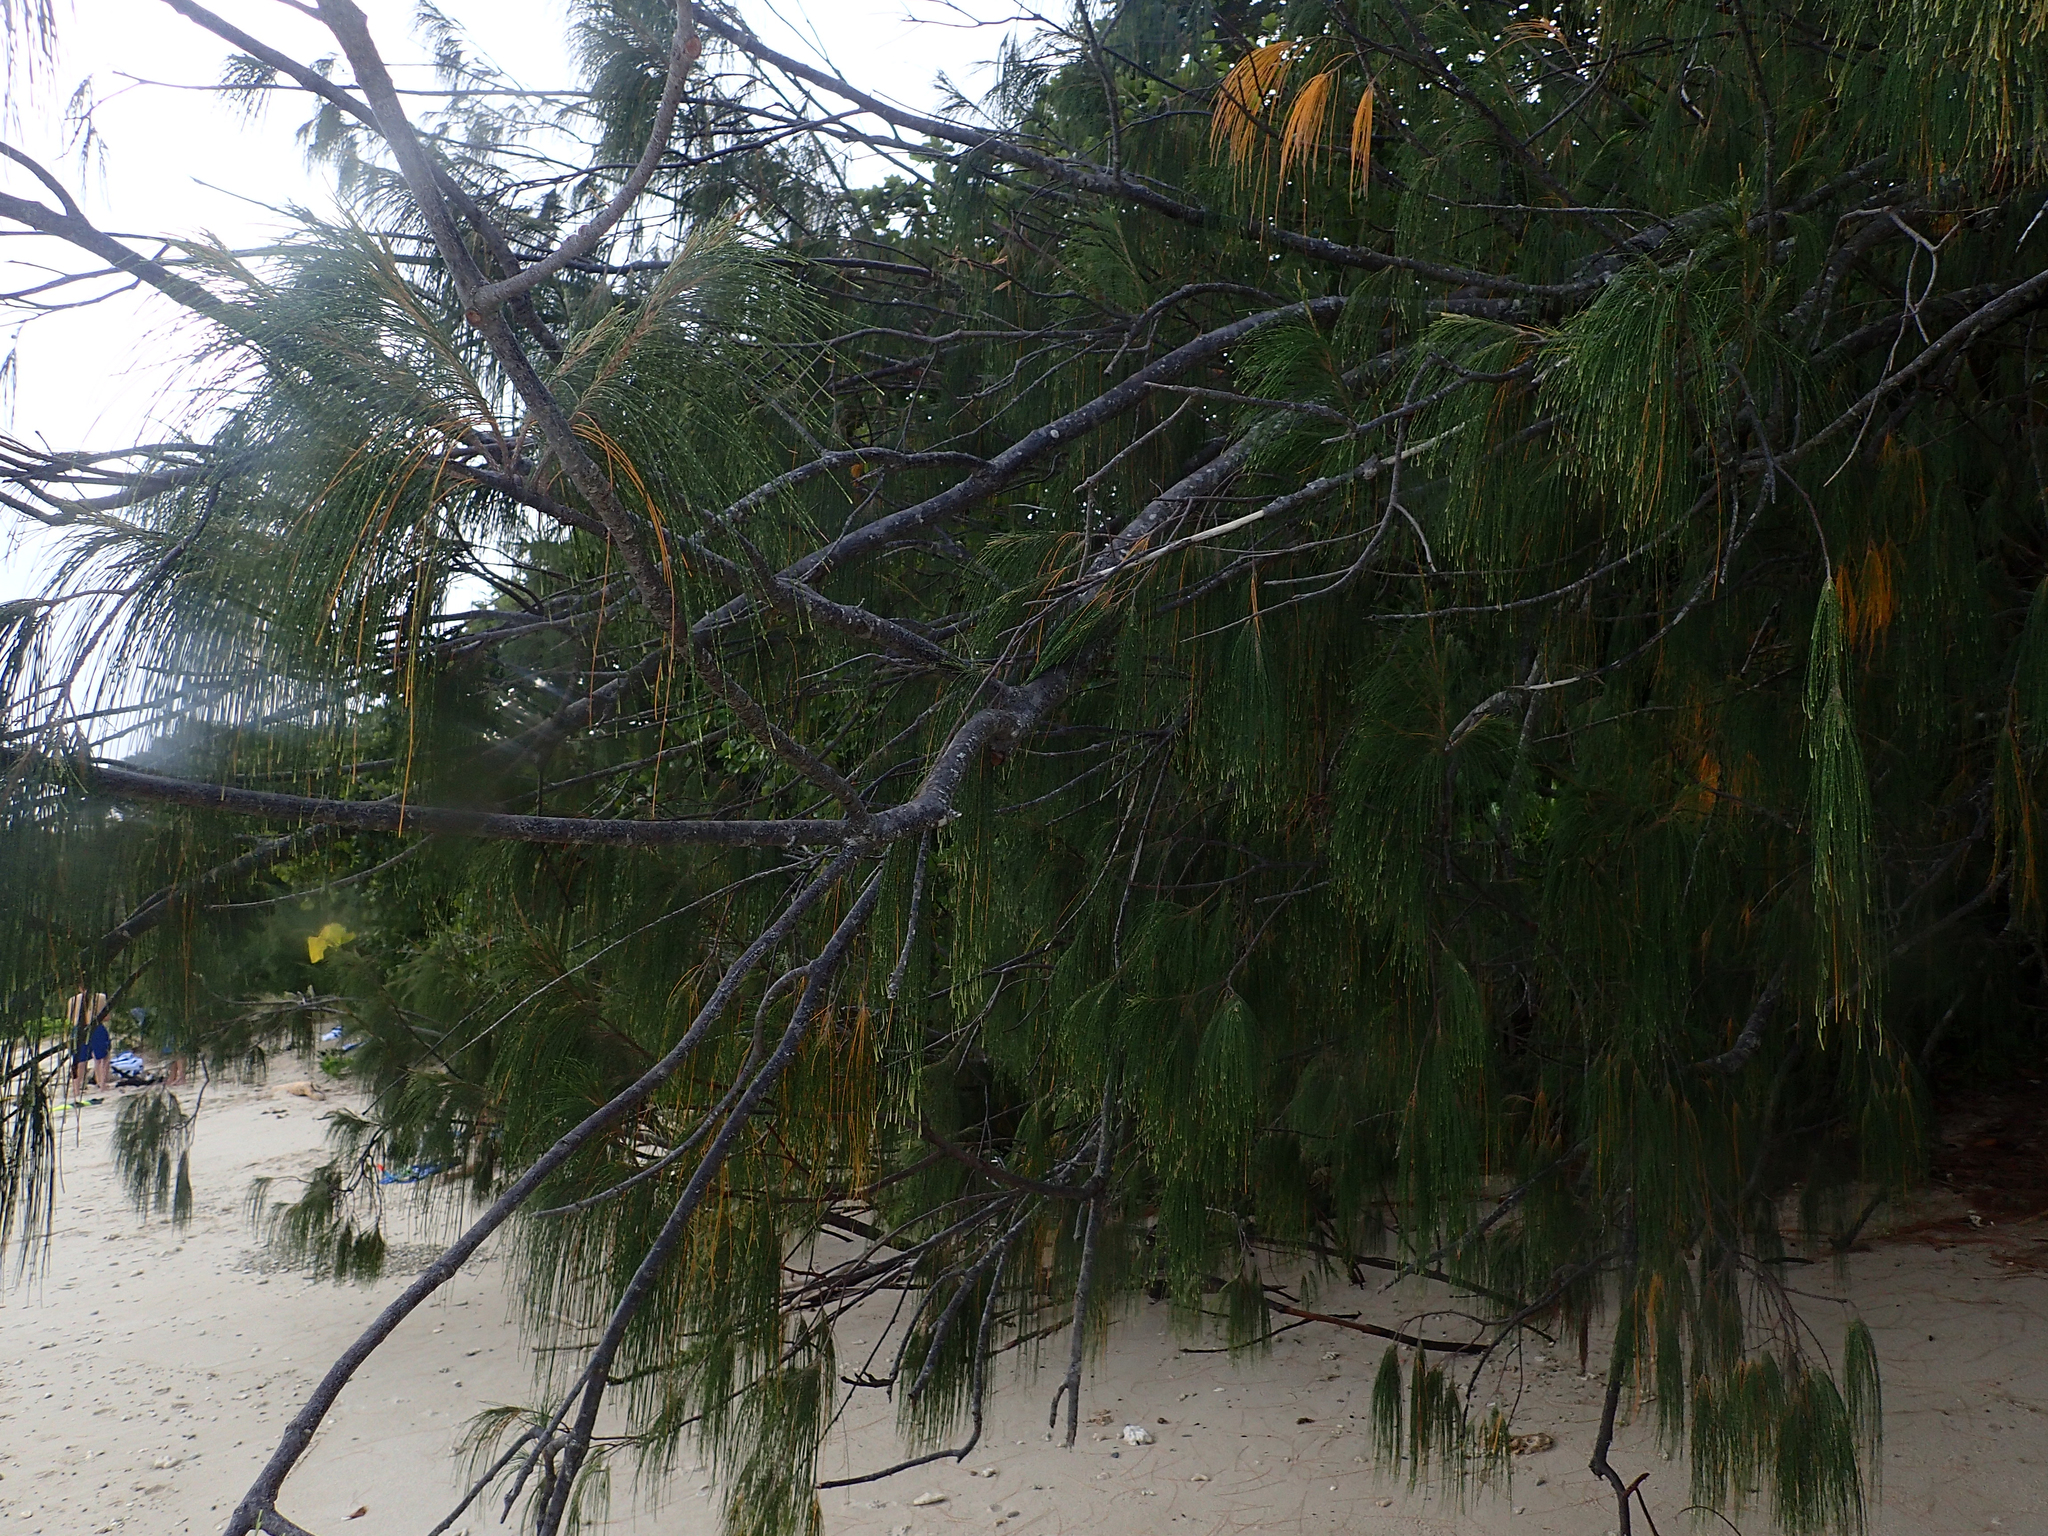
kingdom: Plantae
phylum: Tracheophyta
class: Magnoliopsida
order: Fagales
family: Casuarinaceae
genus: Casuarina
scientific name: Casuarina equisetifolia
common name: Beach sheoak
